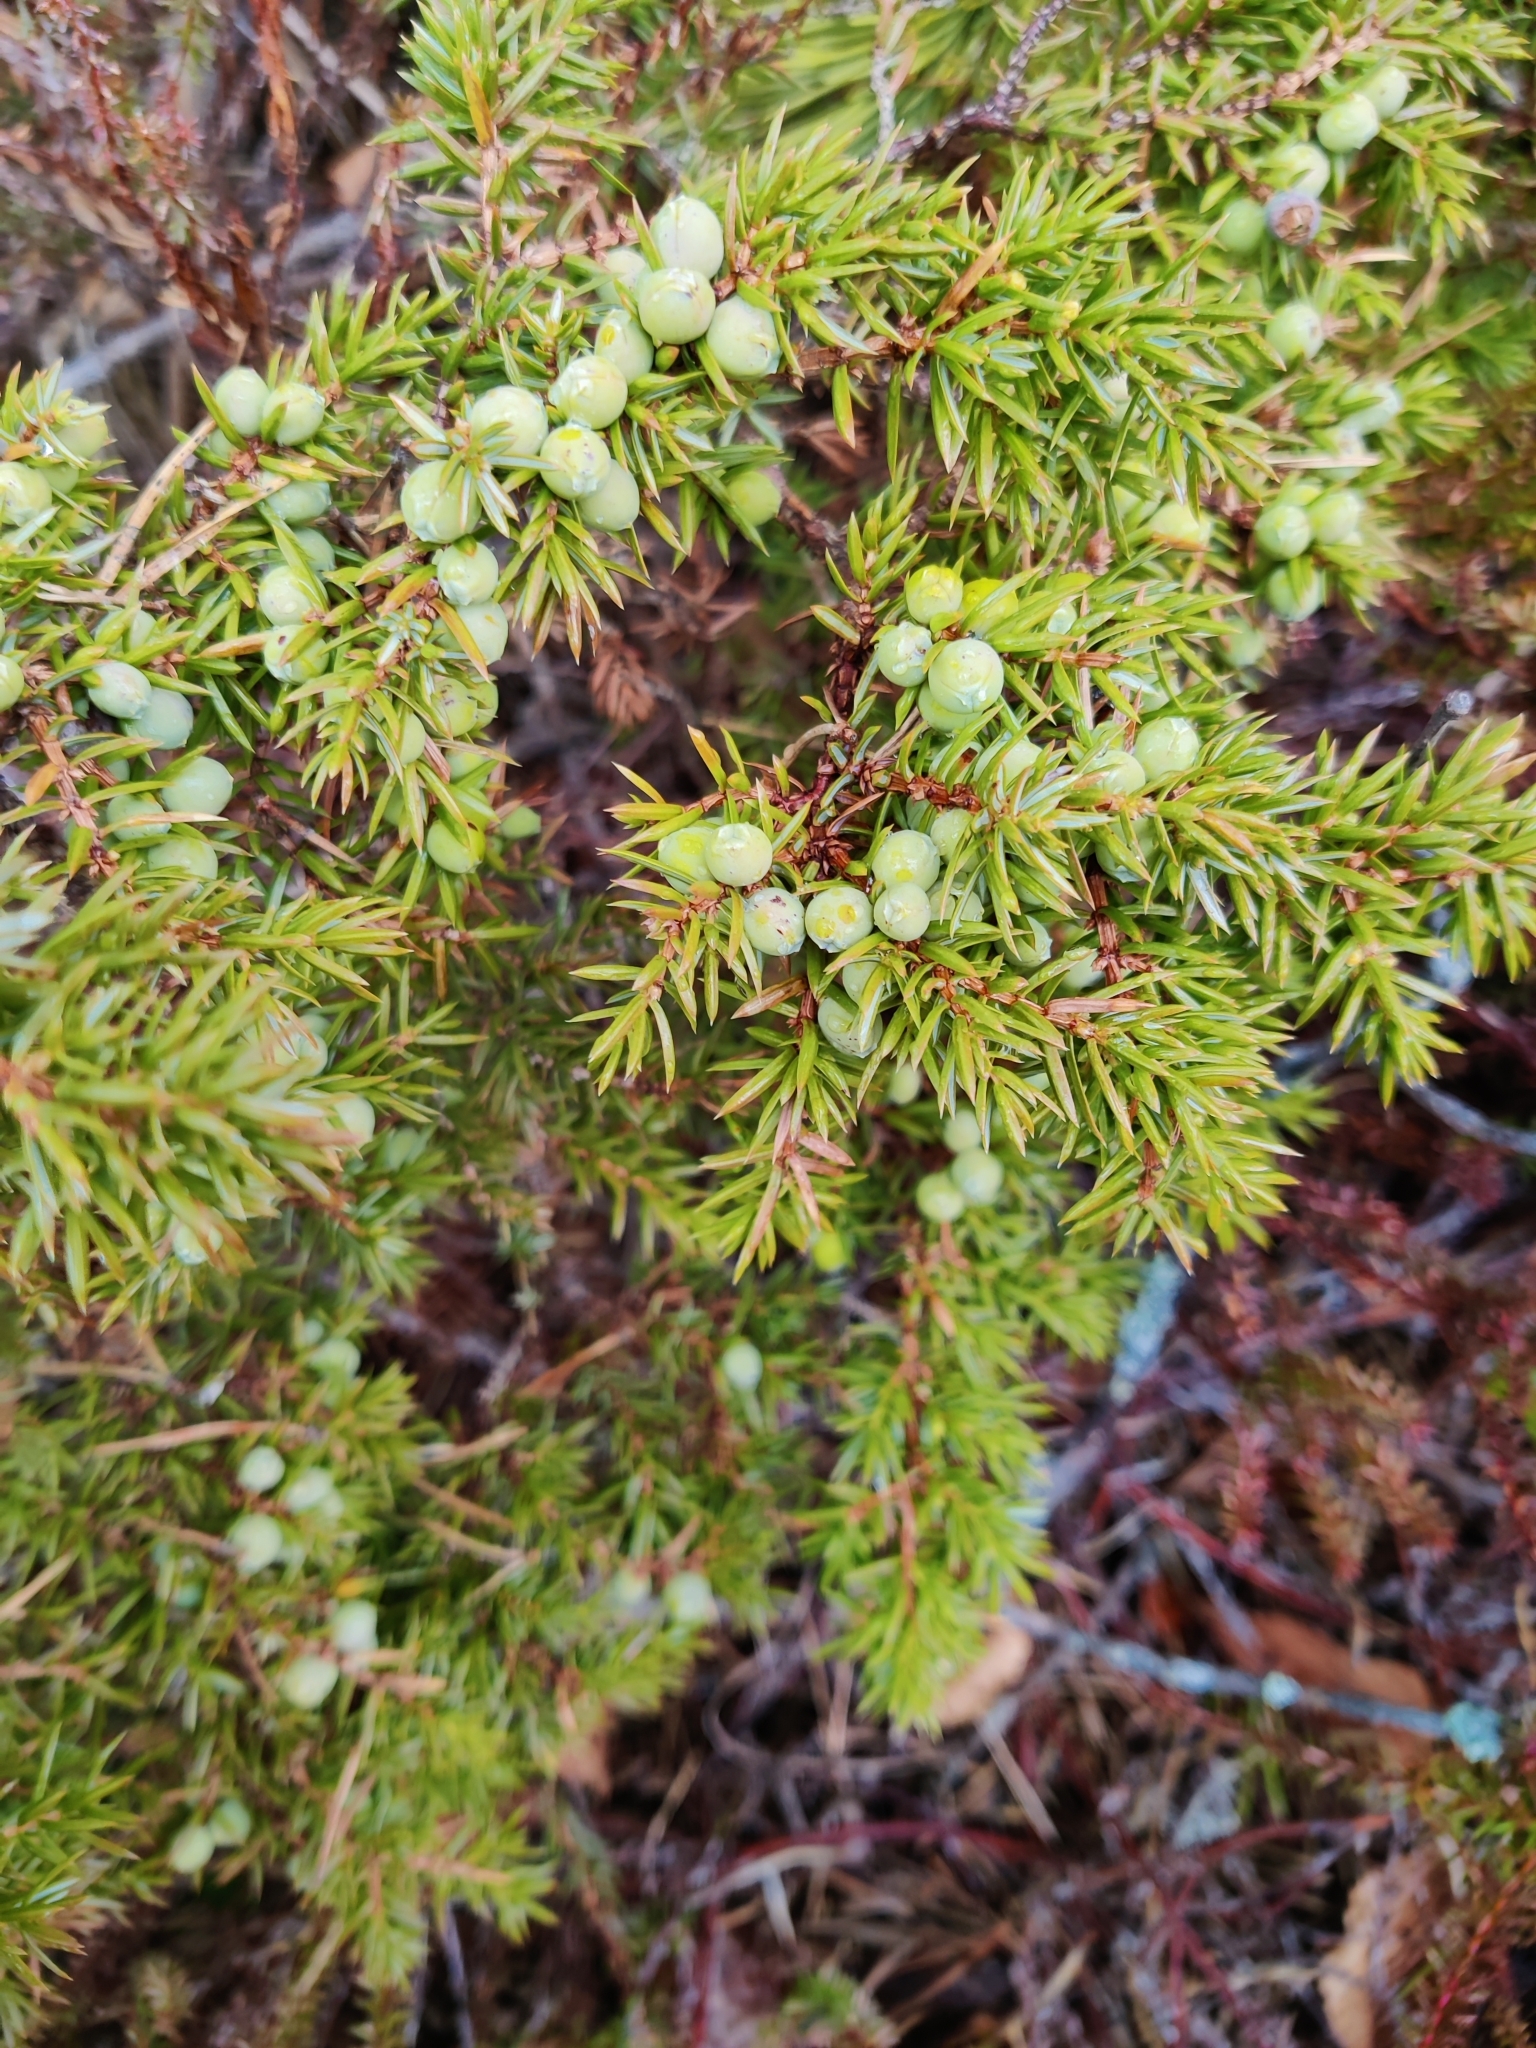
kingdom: Plantae
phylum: Tracheophyta
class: Pinopsida
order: Pinales
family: Cupressaceae
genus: Juniperus
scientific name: Juniperus communis
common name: Common juniper
